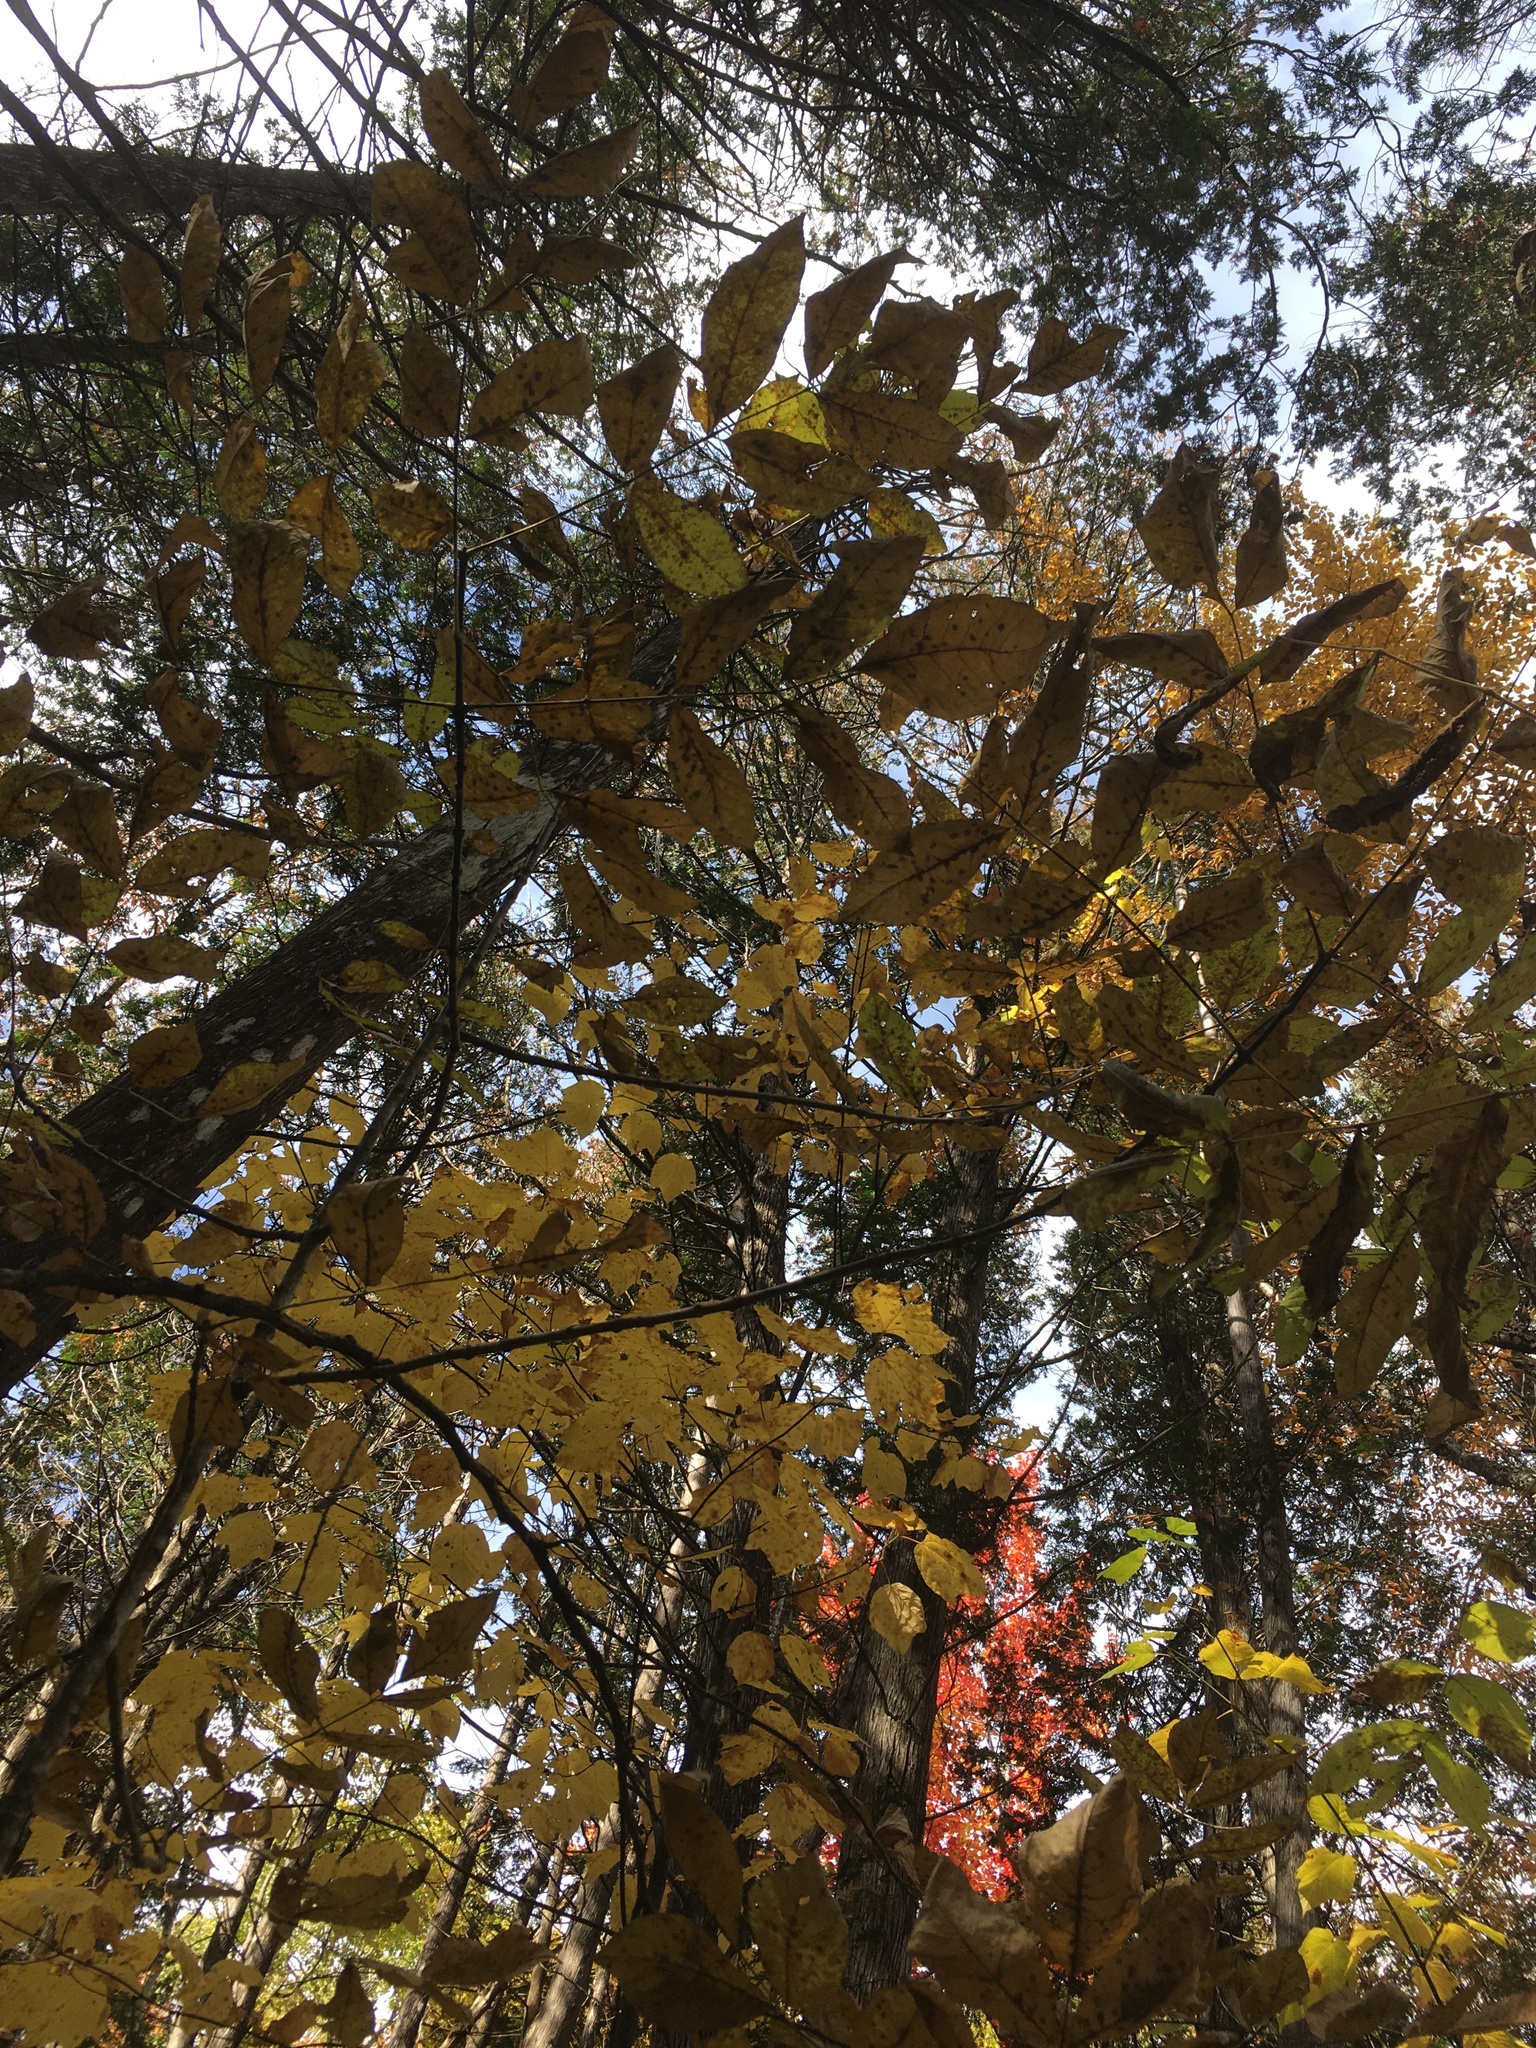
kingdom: Plantae
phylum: Tracheophyta
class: Magnoliopsida
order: Lamiales
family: Oleaceae
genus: Fraxinus
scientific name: Fraxinus nigra
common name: Black ash
